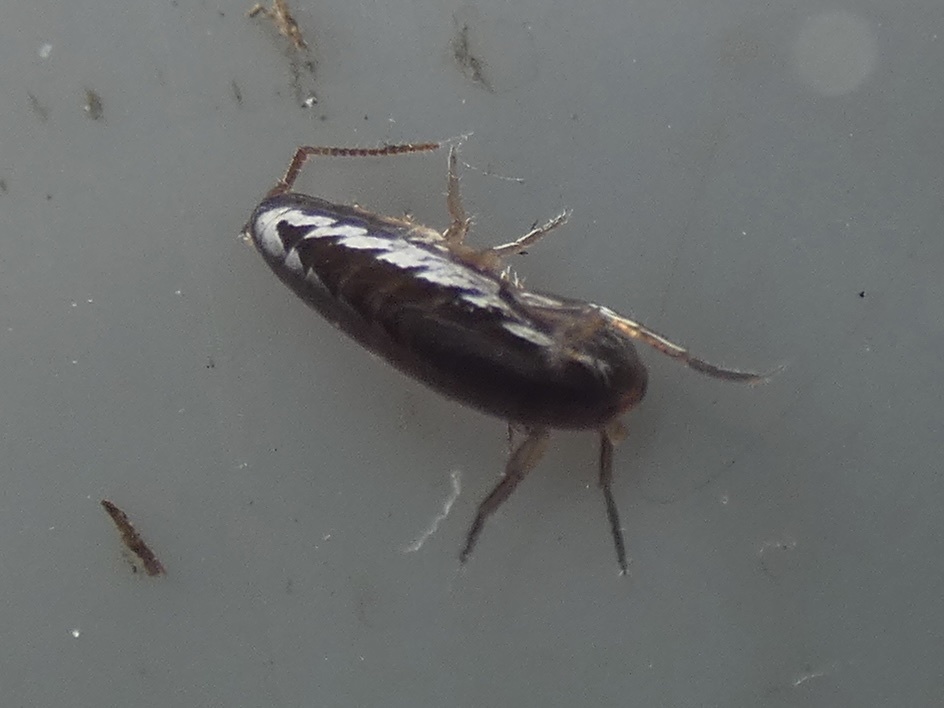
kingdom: Animalia
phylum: Arthropoda
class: Malacostraca
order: Amphipoda
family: Arcitalitridae
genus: Arcitalitrus
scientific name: Arcitalitrus dorrieni
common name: Landhopper
